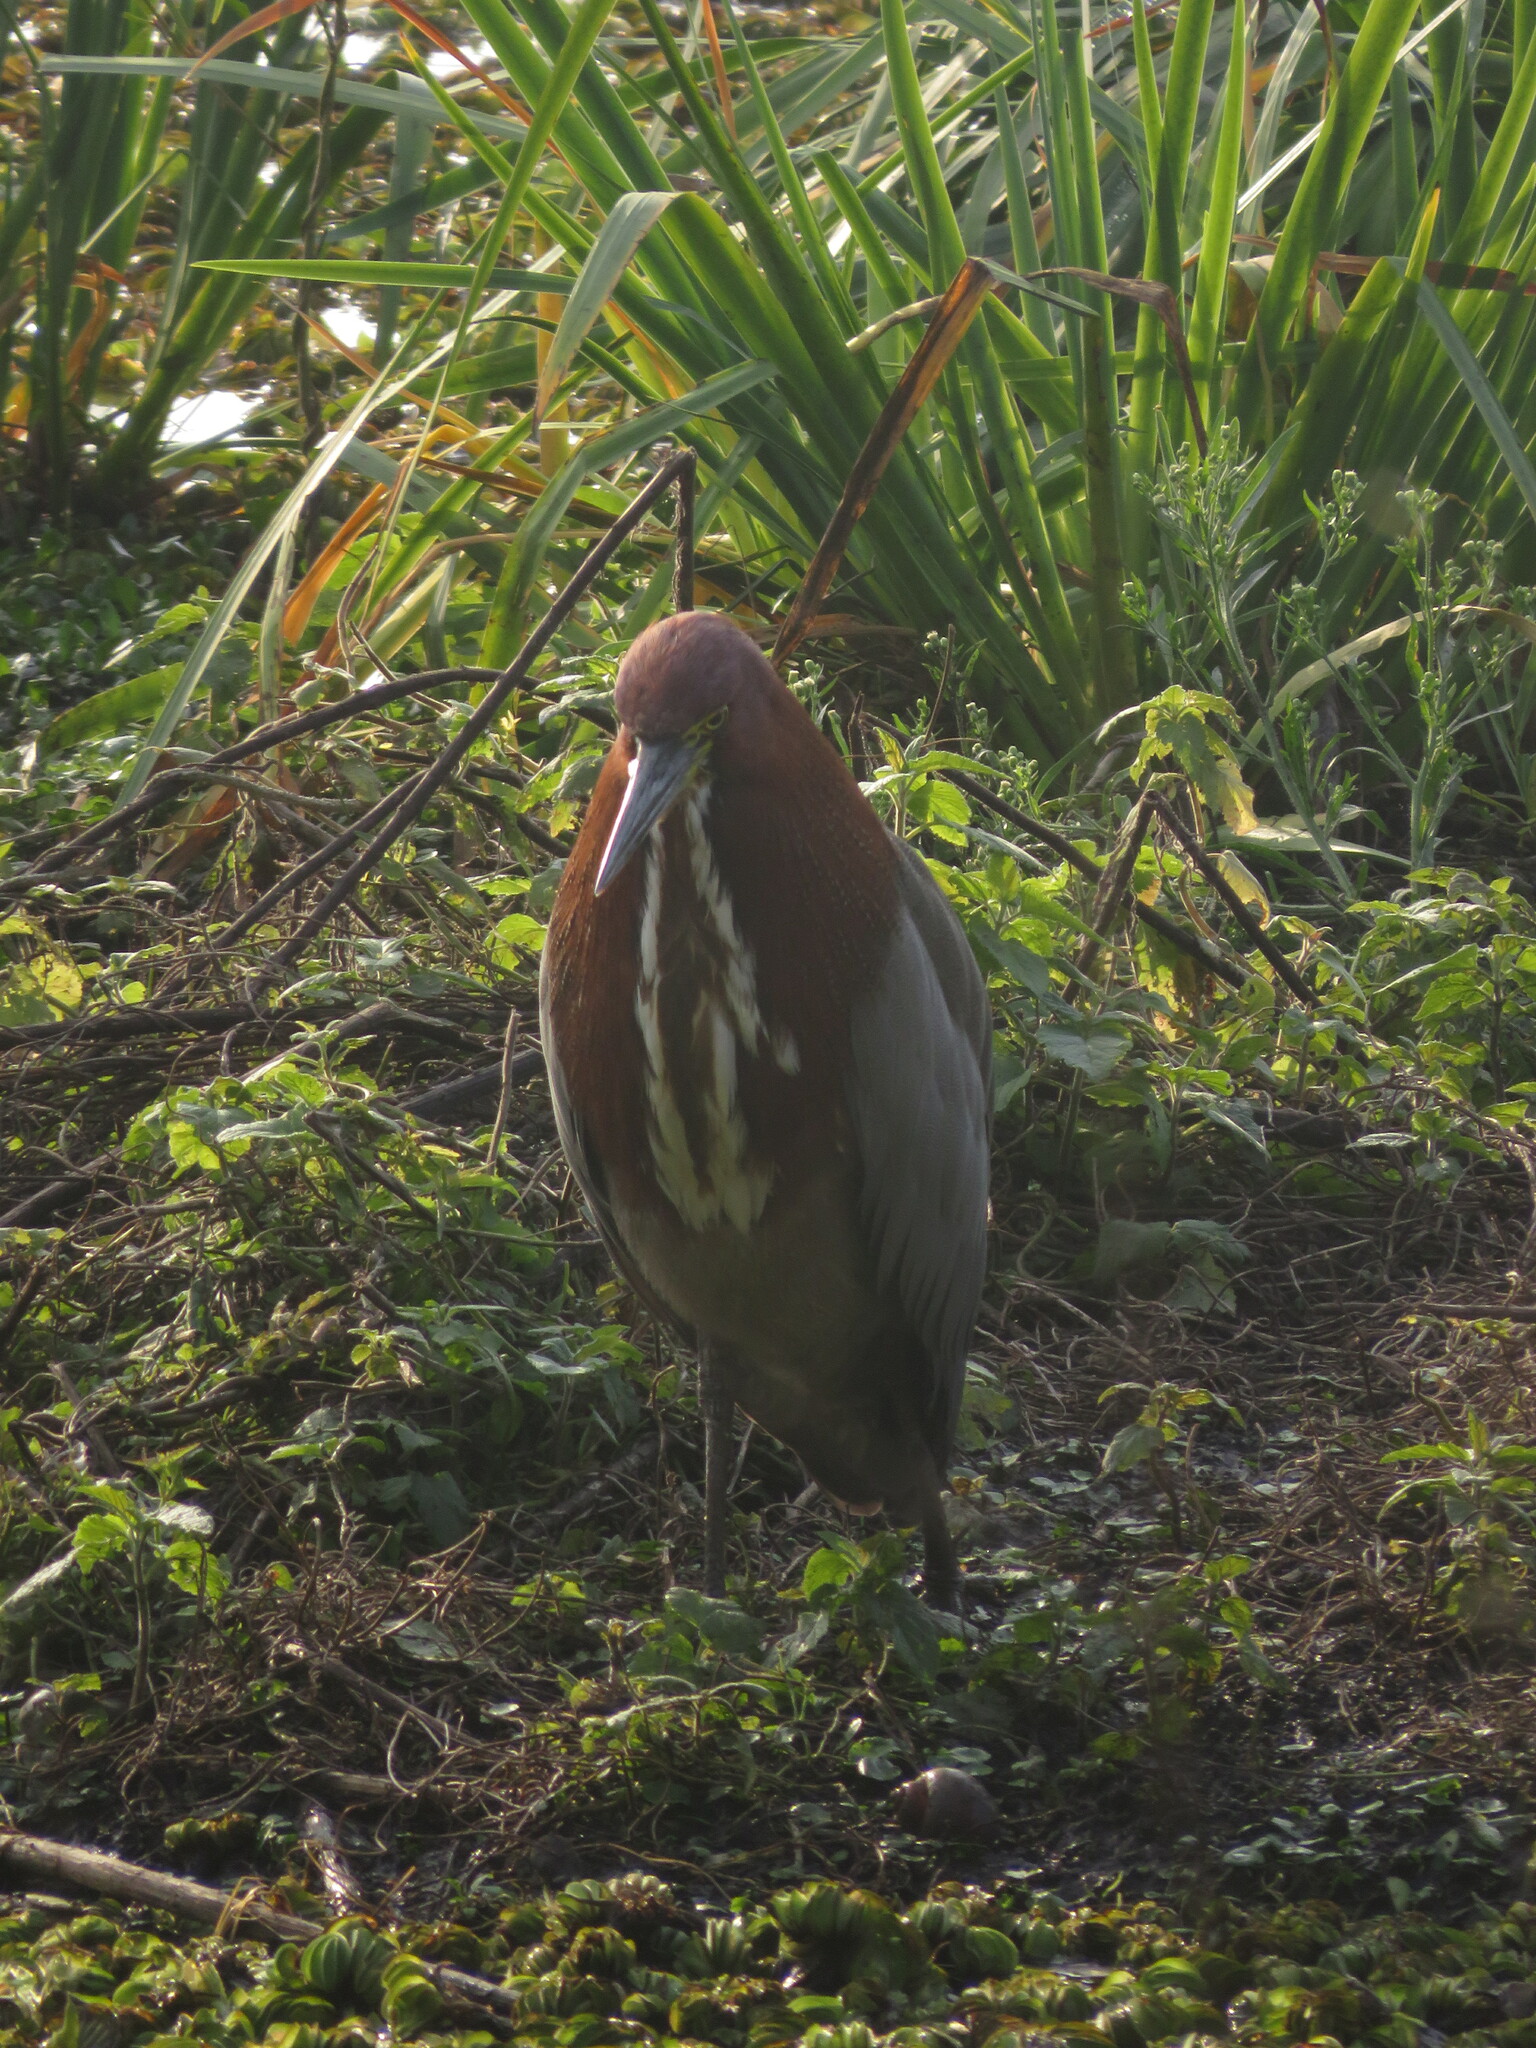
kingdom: Animalia
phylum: Chordata
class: Aves
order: Pelecaniformes
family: Ardeidae
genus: Tigrisoma
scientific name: Tigrisoma lineatum
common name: Rufescent tiger-heron
